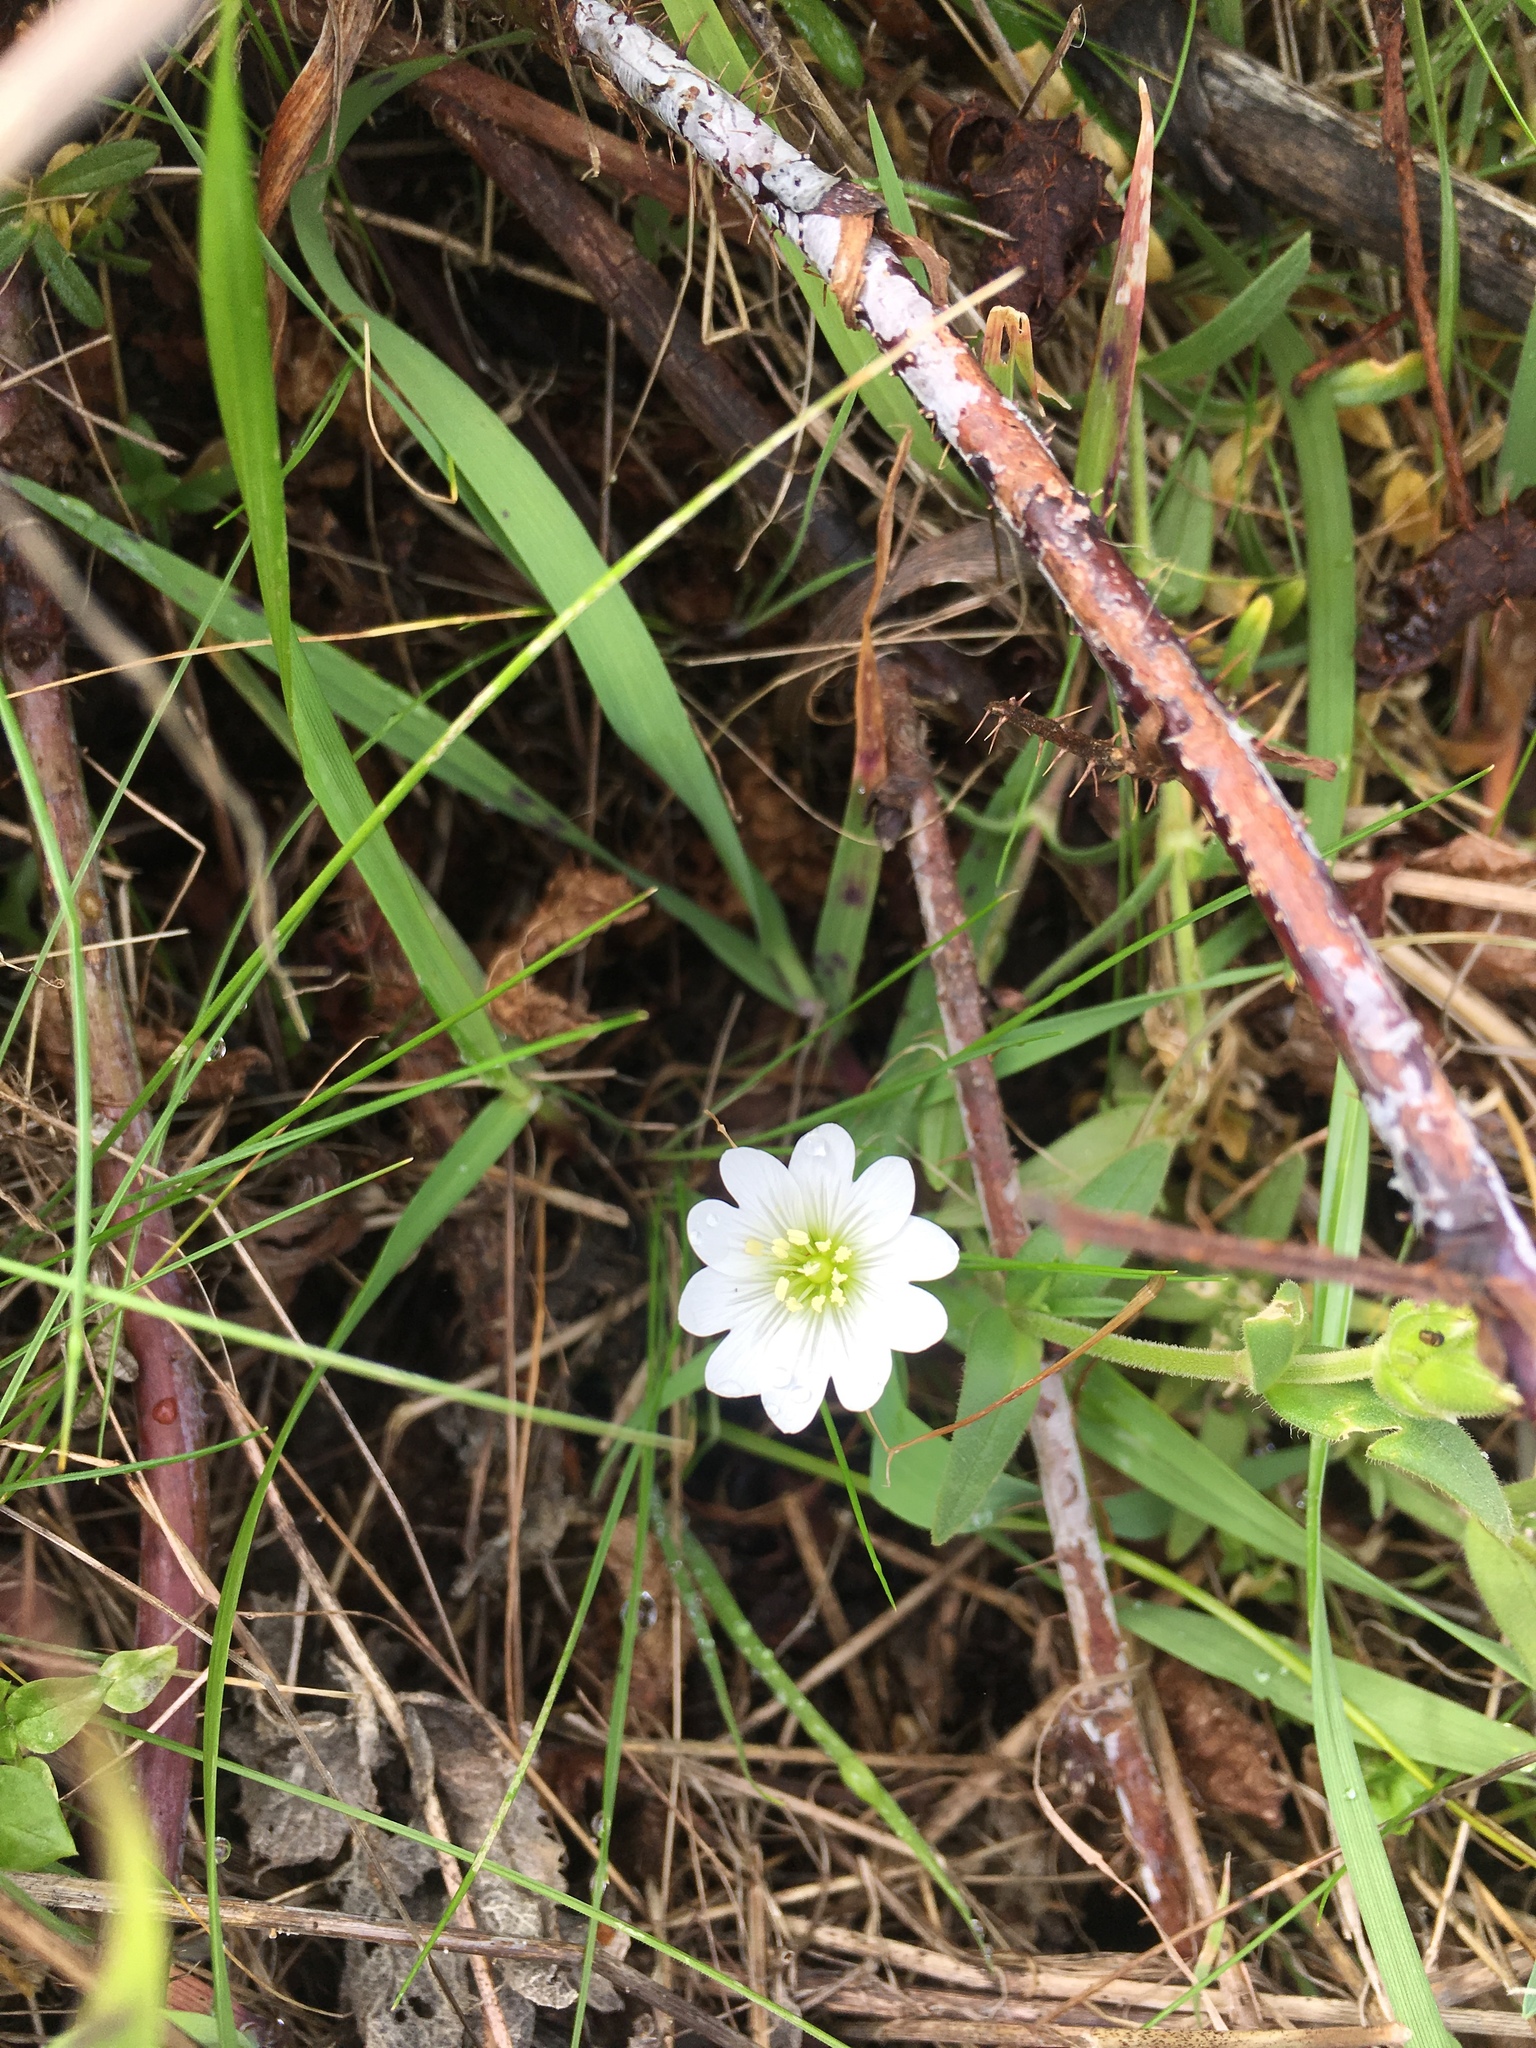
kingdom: Plantae
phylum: Tracheophyta
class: Magnoliopsida
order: Caryophyllales
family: Caryophyllaceae
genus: Cerastium
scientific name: Cerastium arvense
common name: Field mouse-ear
